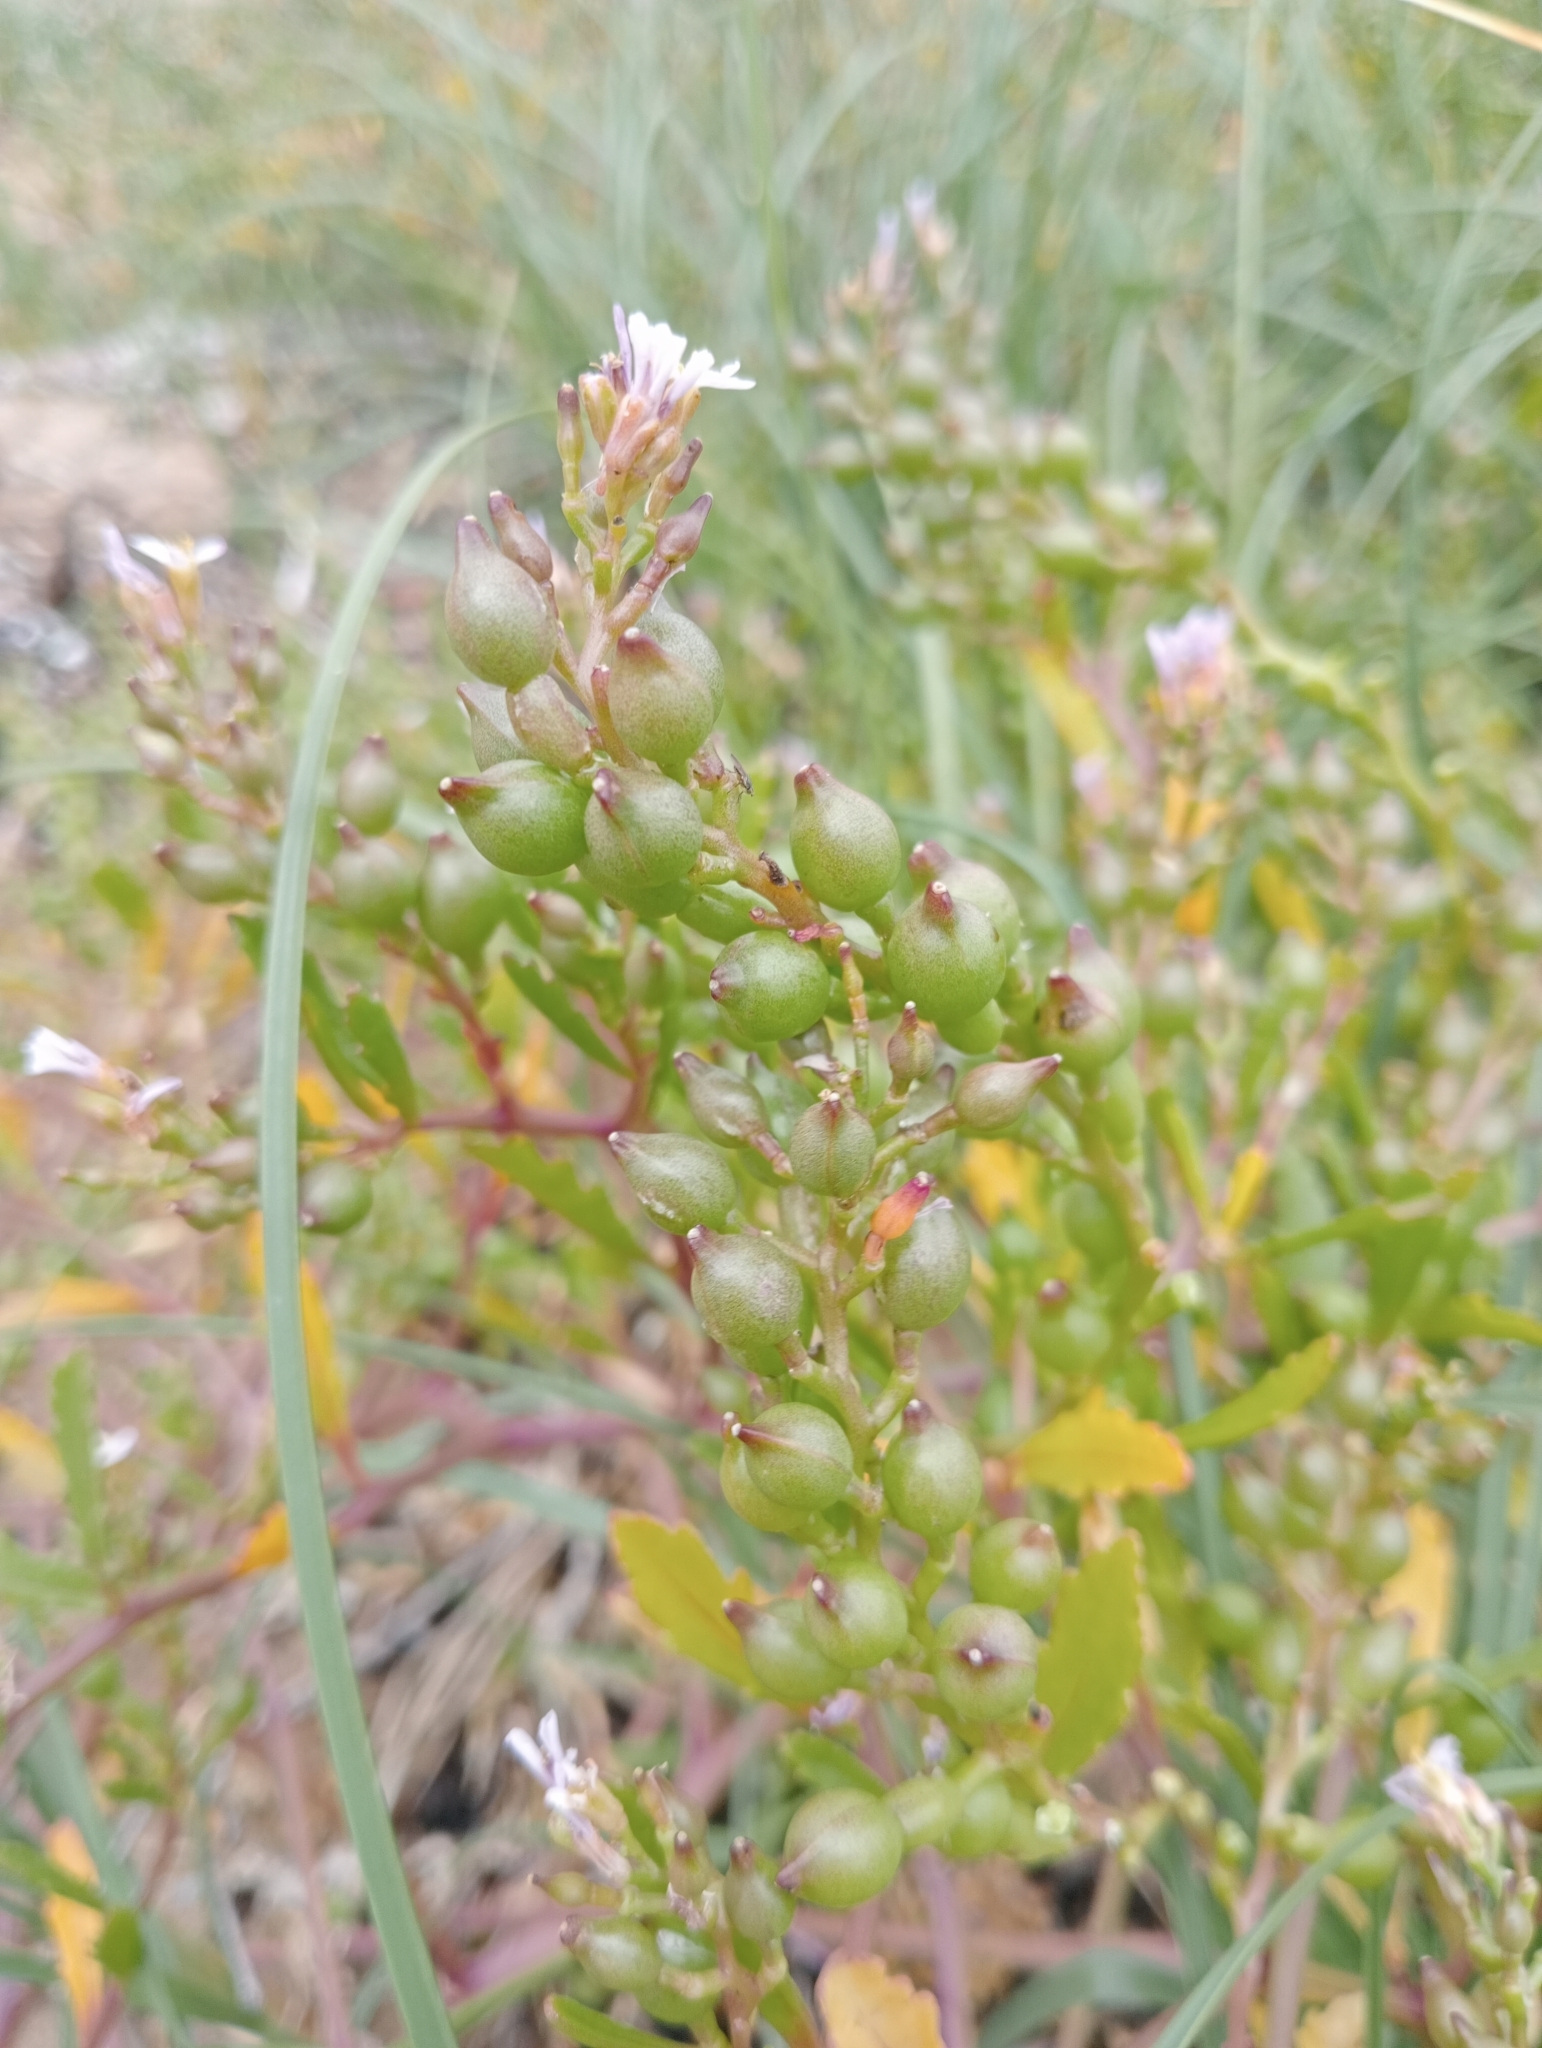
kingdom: Plantae
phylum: Tracheophyta
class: Magnoliopsida
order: Brassicales
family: Brassicaceae
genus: Cakile
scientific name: Cakile edentula
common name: American sea rocket
